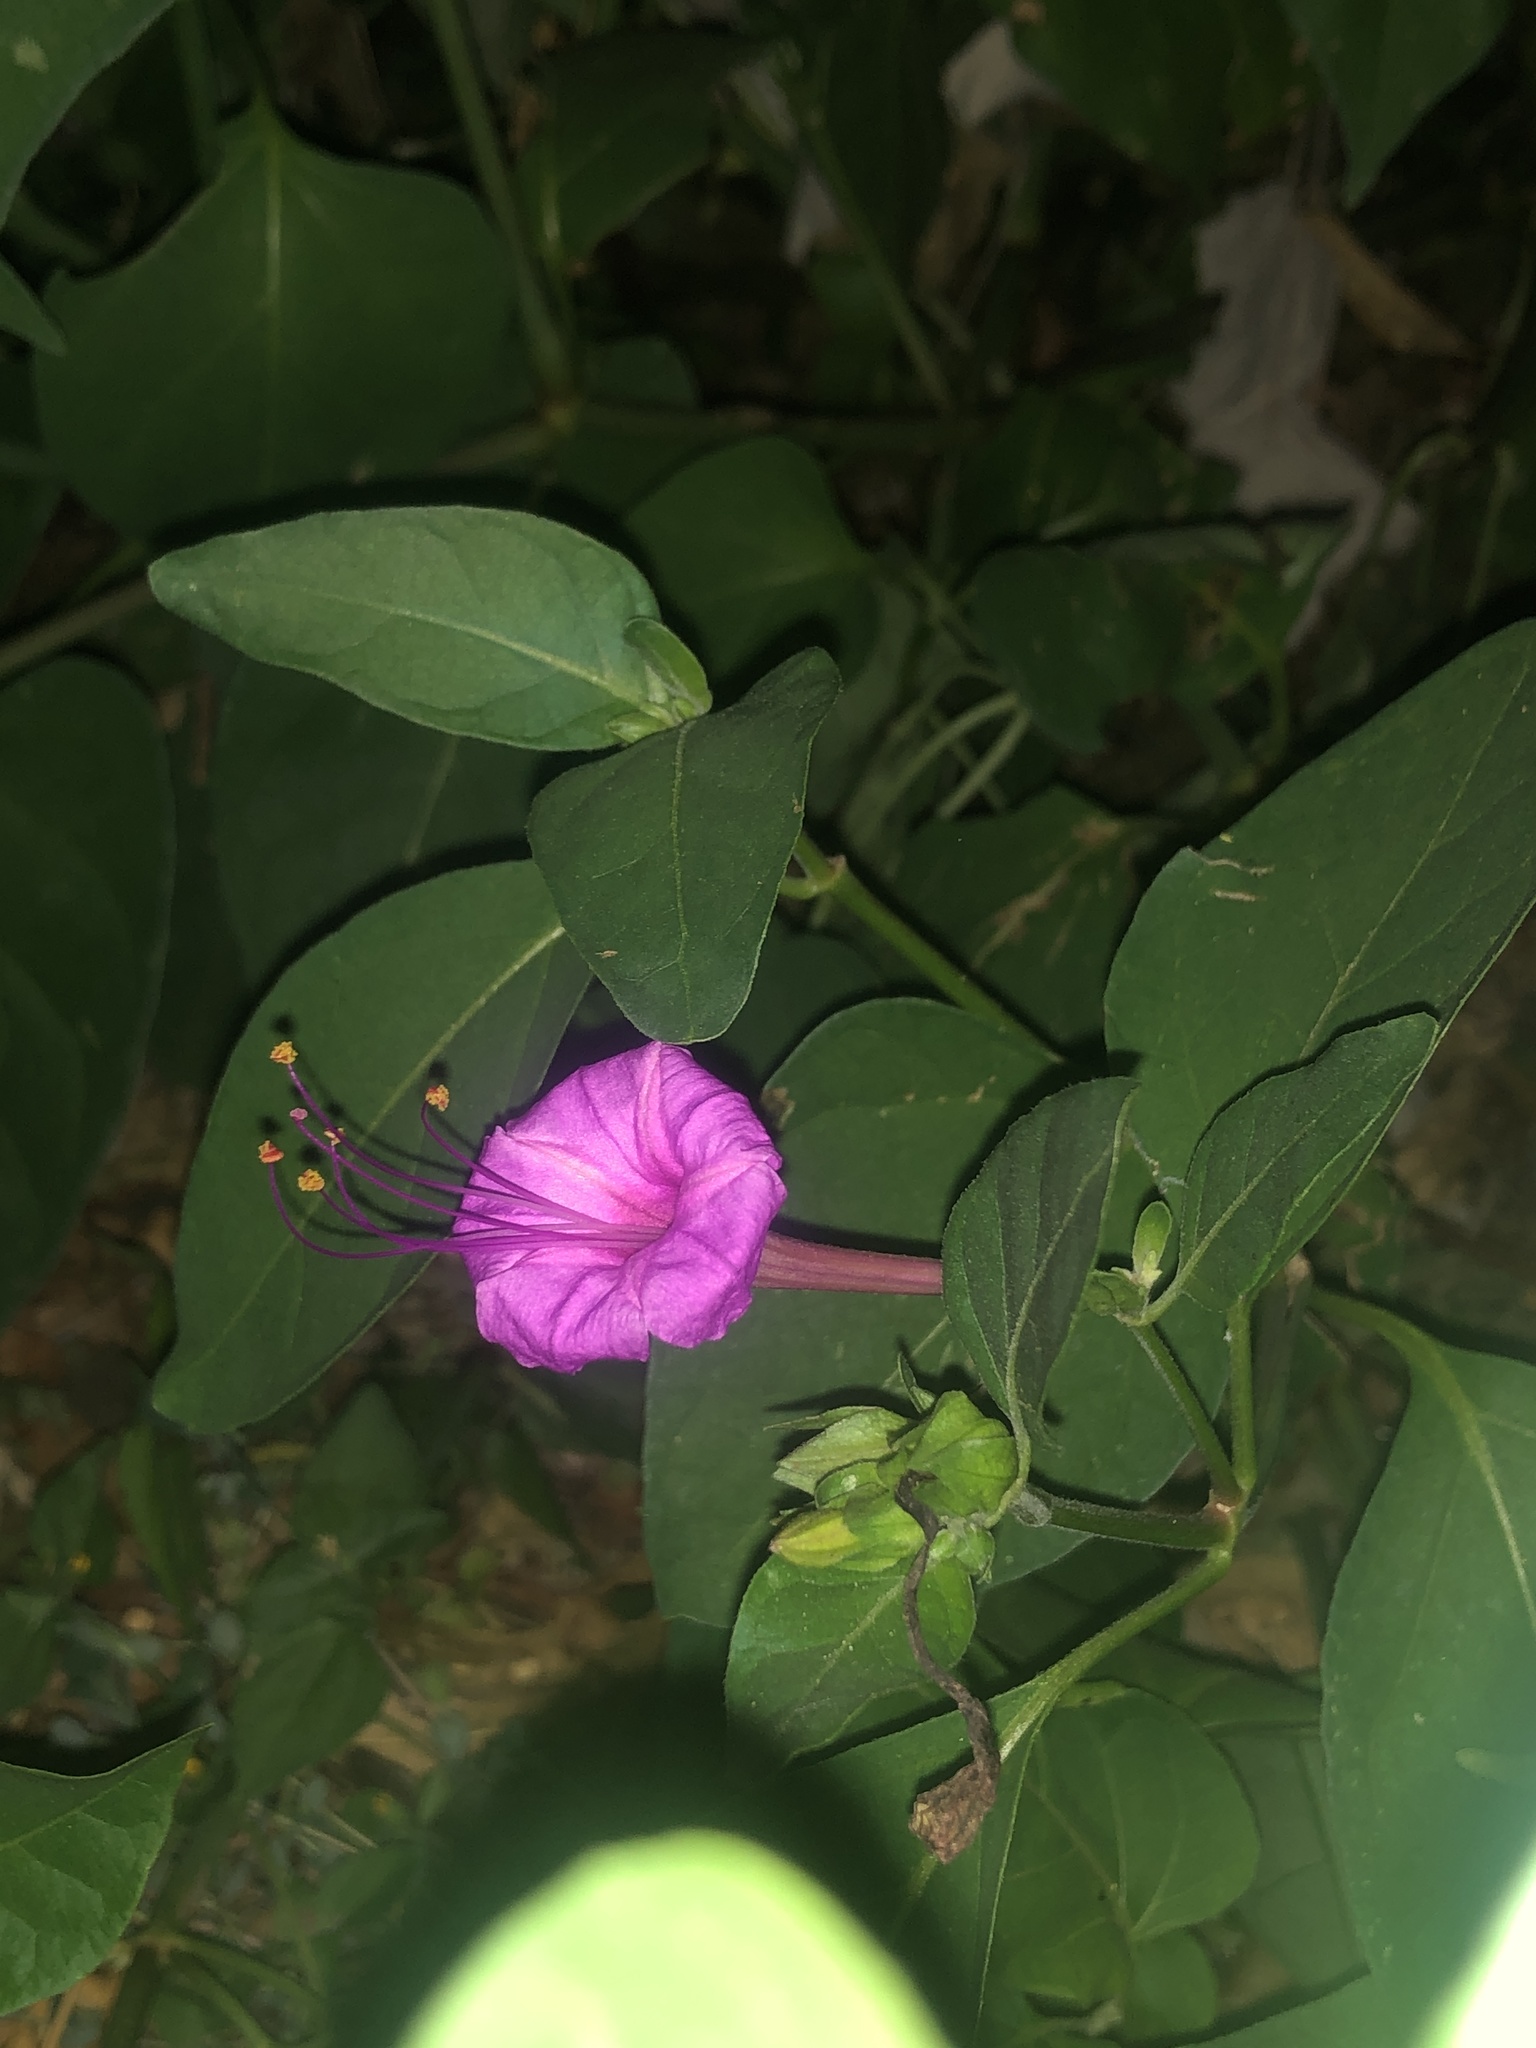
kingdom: Plantae
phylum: Tracheophyta
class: Magnoliopsida
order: Caryophyllales
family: Nyctaginaceae
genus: Mirabilis
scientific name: Mirabilis jalapa
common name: Marvel-of-peru
